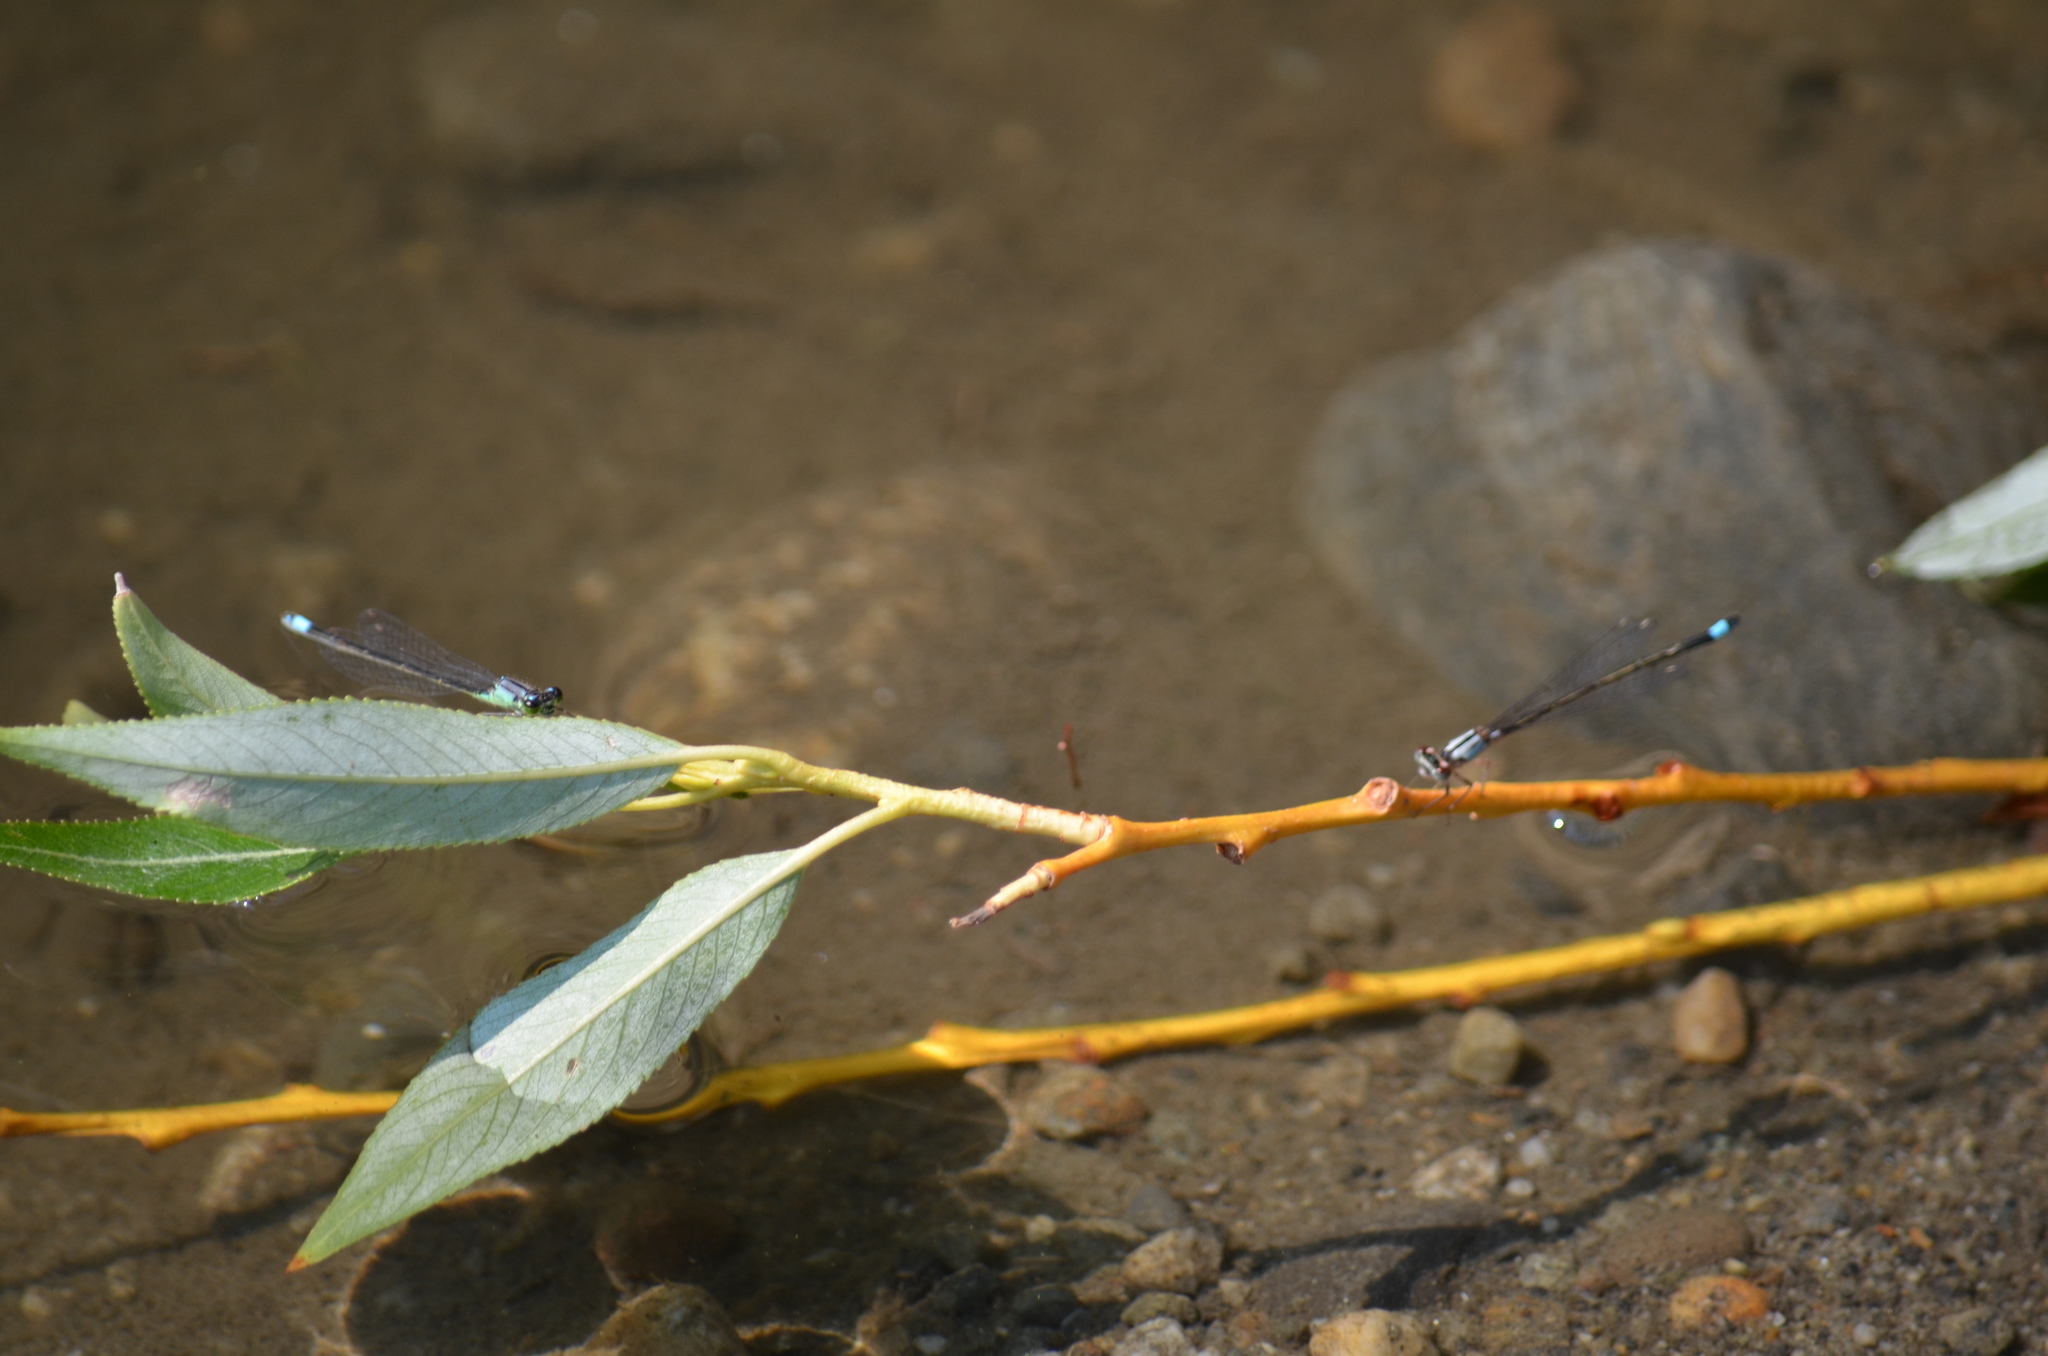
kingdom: Animalia
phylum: Arthropoda
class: Insecta
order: Odonata
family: Coenagrionidae
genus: Ischnura
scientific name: Ischnura cervula
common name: Pacific forktail
